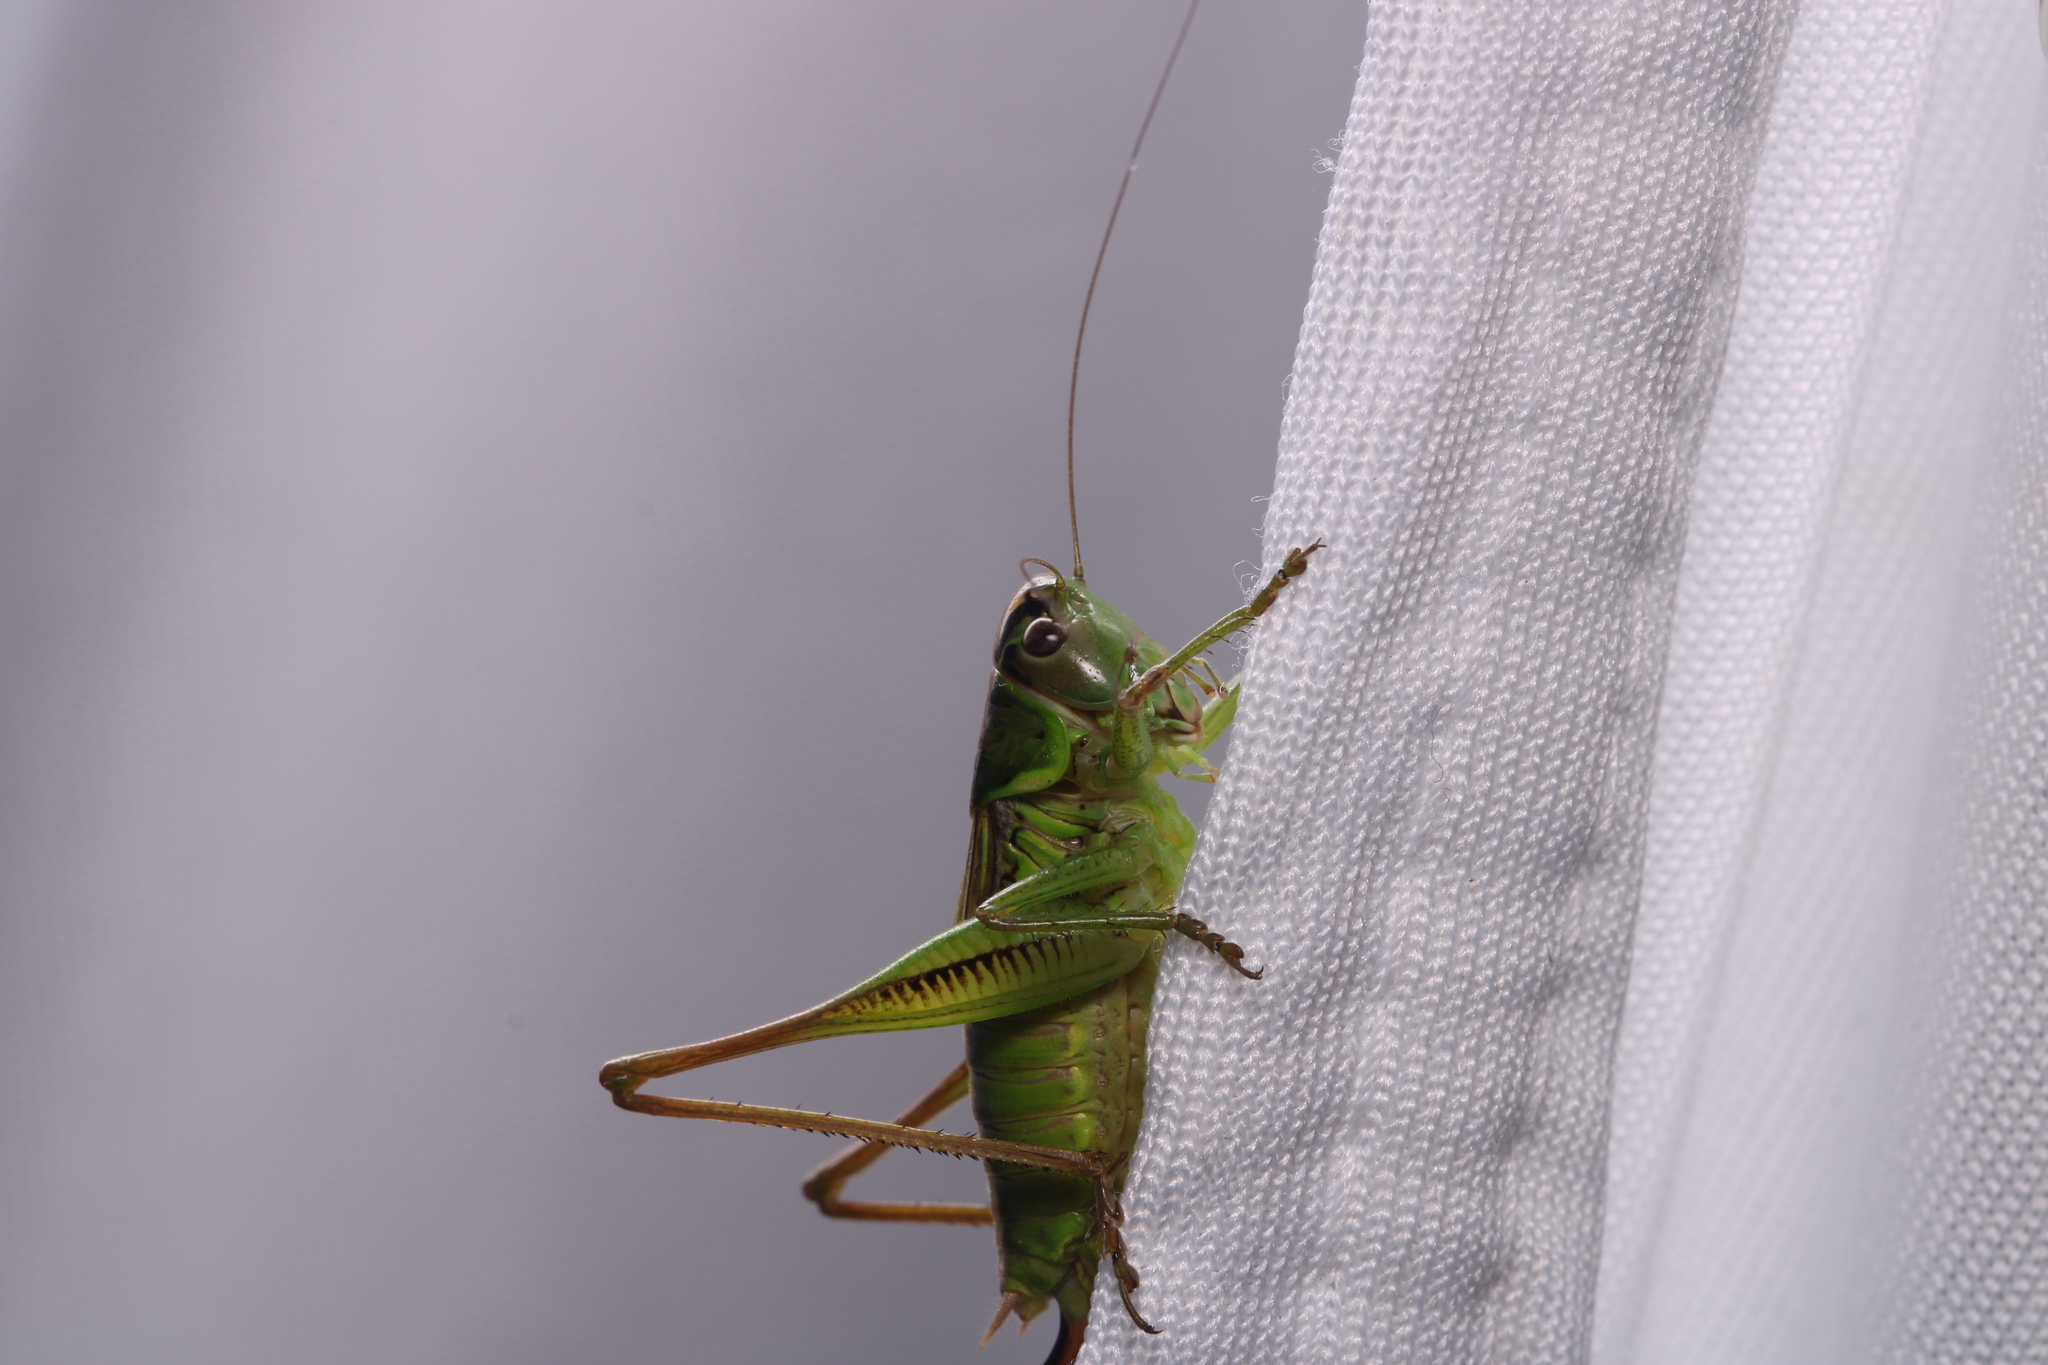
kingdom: Animalia
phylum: Arthropoda
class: Insecta
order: Orthoptera
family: Tettigoniidae
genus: Roeseliana
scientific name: Roeseliana roeselii
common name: Roesel's bush cricket
